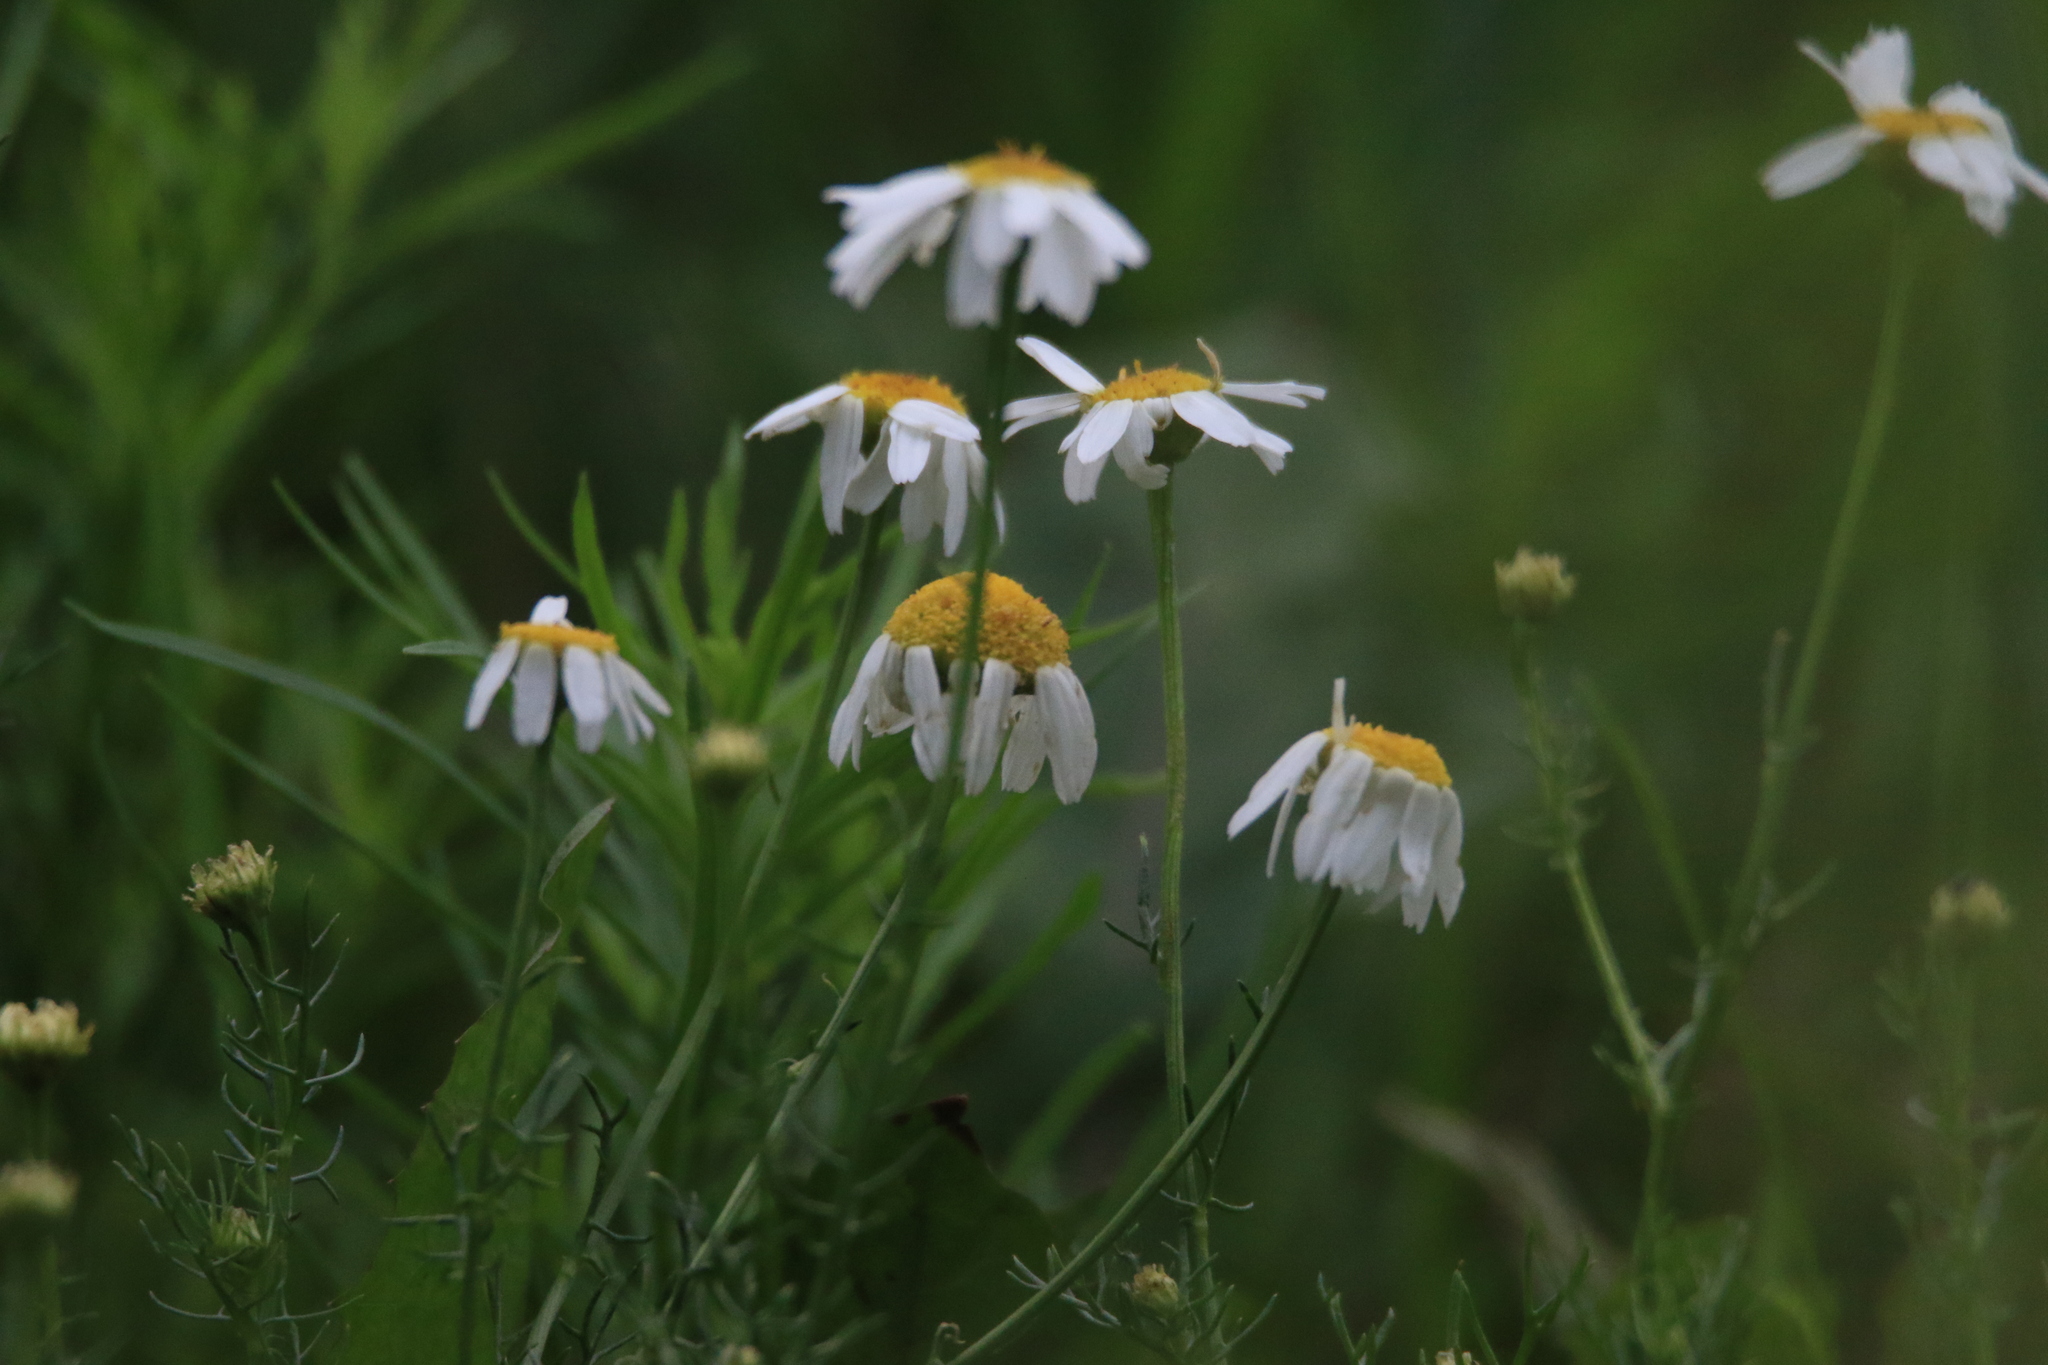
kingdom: Plantae
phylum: Tracheophyta
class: Magnoliopsida
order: Asterales
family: Asteraceae
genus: Tripleurospermum
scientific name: Tripleurospermum inodorum
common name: Scentless mayweed
